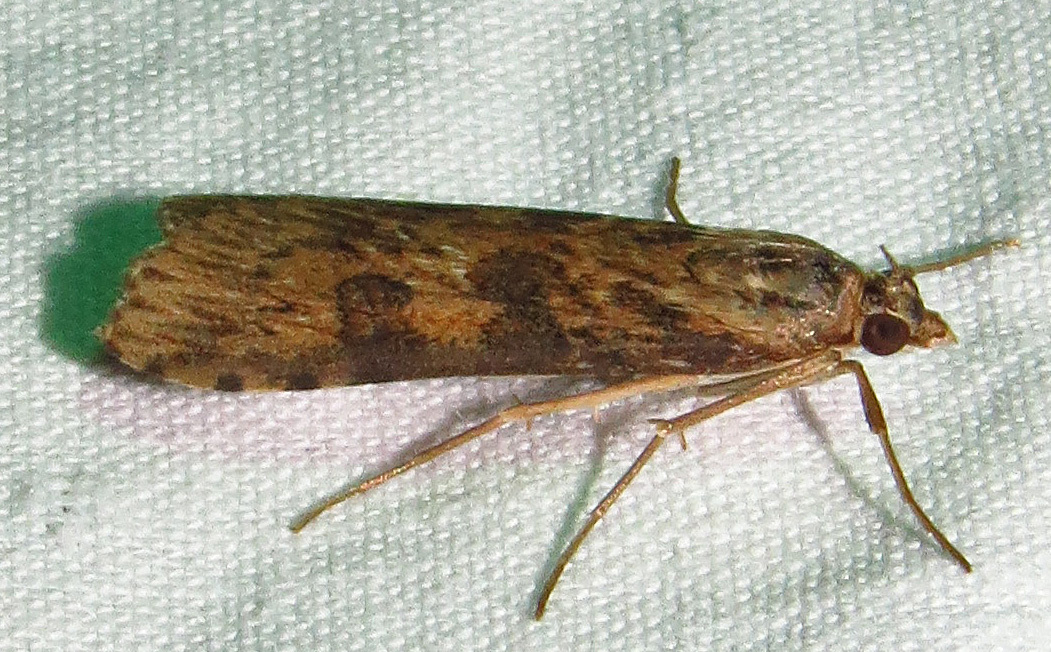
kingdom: Animalia
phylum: Arthropoda
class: Insecta
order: Lepidoptera
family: Crambidae
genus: Nomophila
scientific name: Nomophila nearctica
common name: American rush veneer
